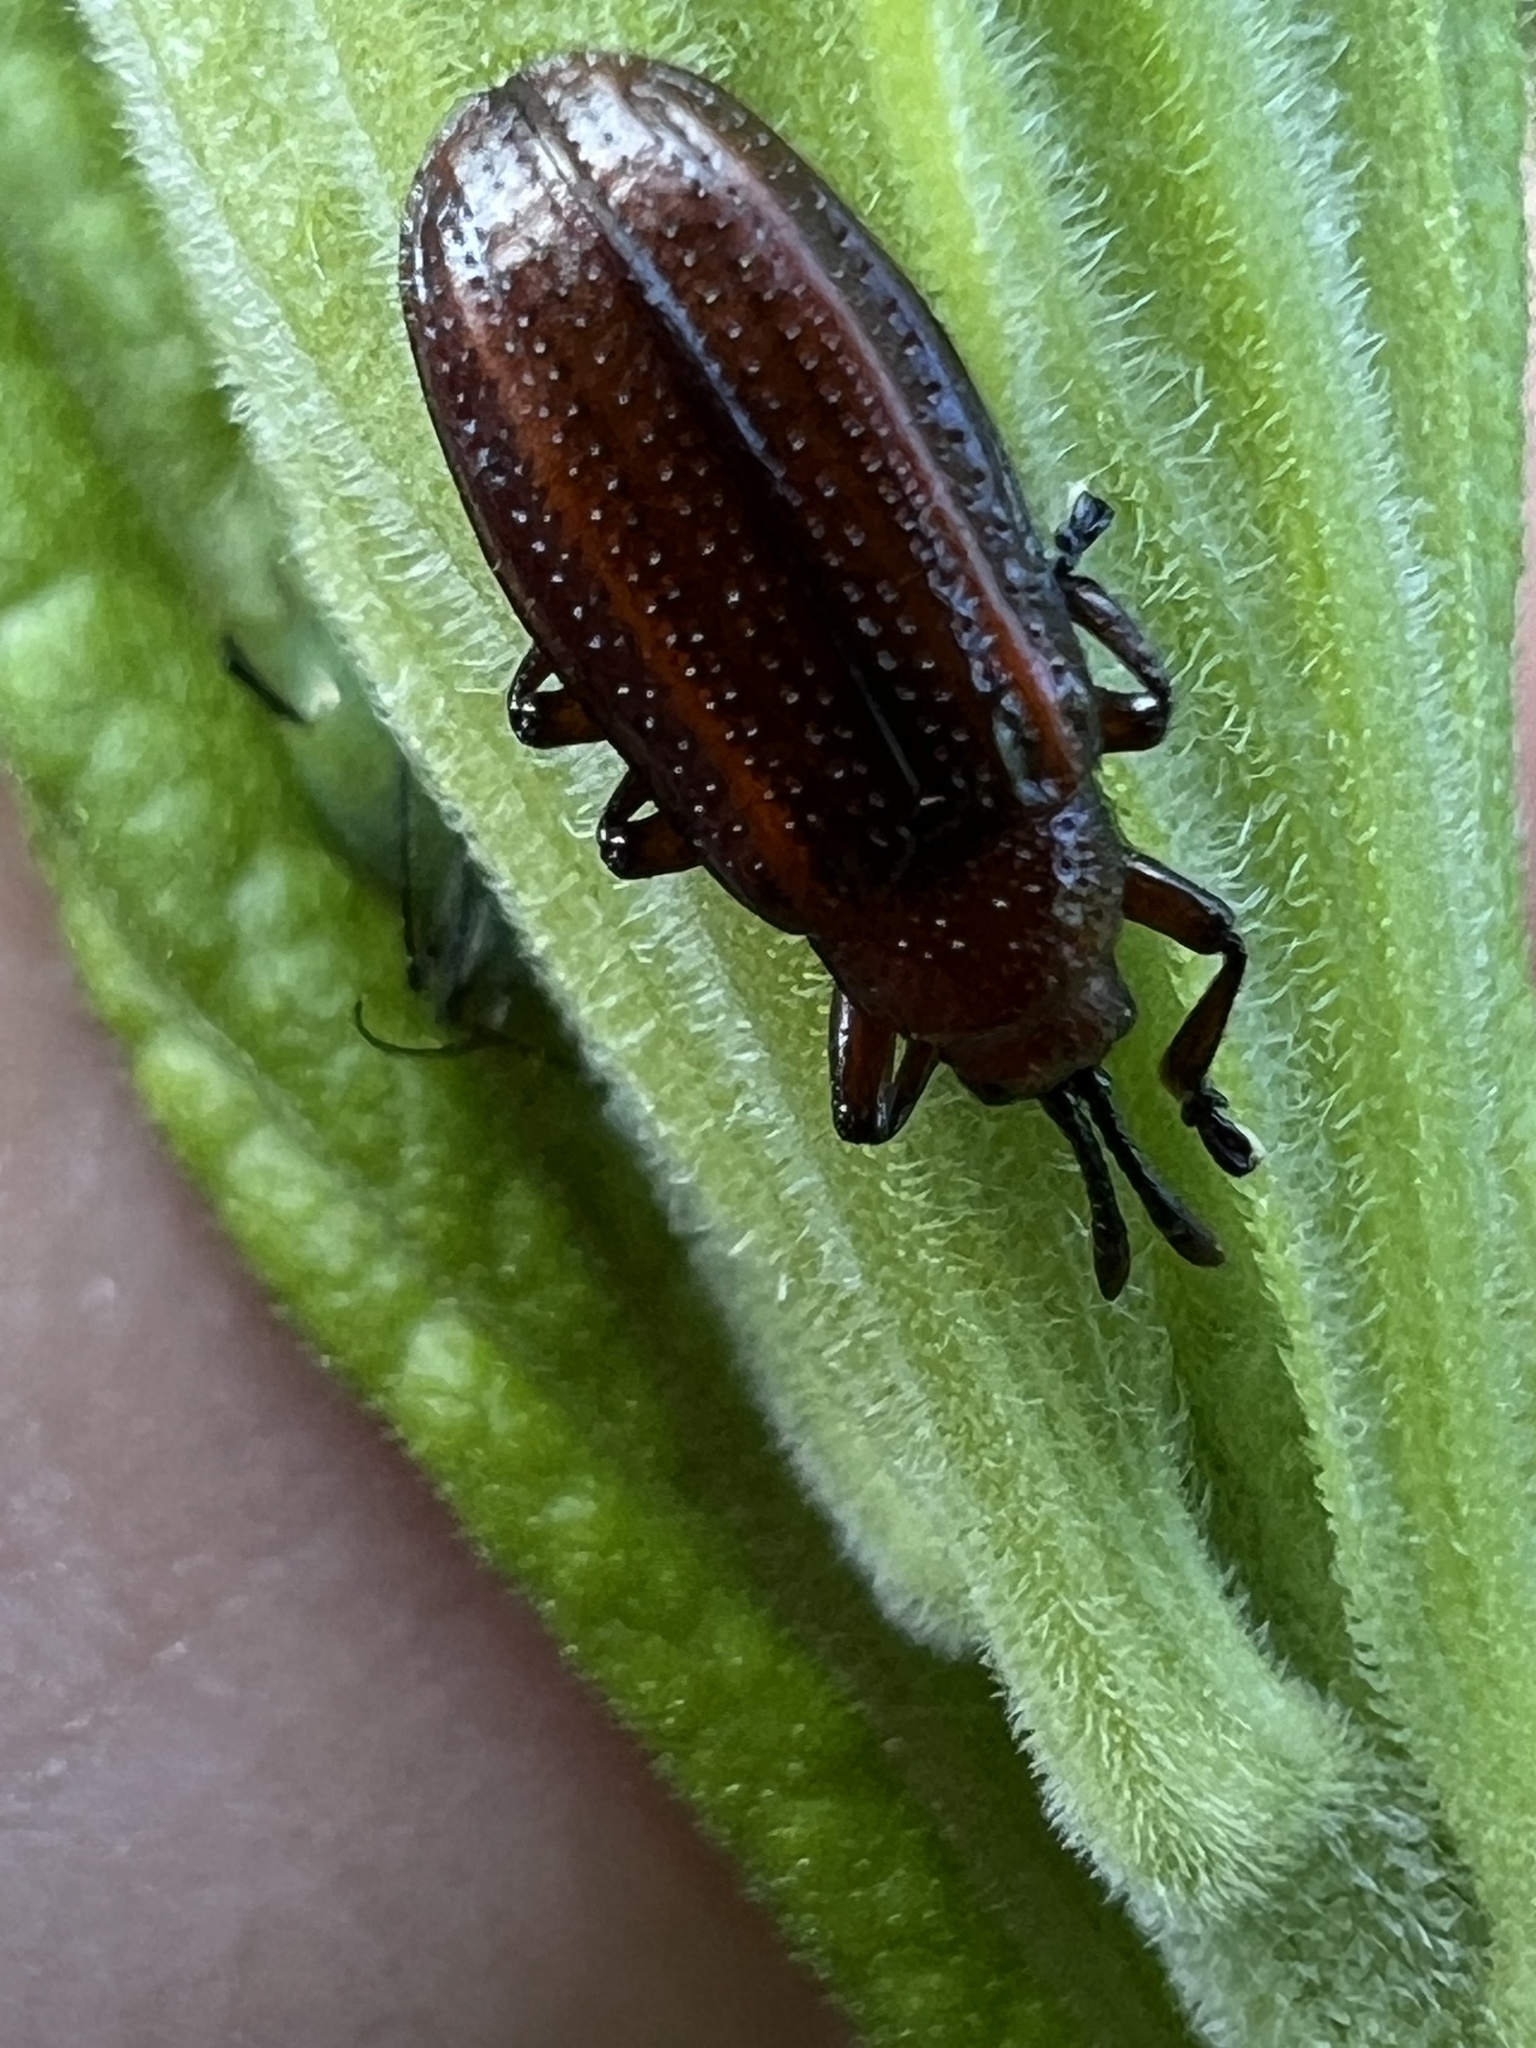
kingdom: Animalia
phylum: Arthropoda
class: Insecta
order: Coleoptera
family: Chrysomelidae
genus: Microrhopala
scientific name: Microrhopala vittata
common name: Goldenrod leaf miner beetle
